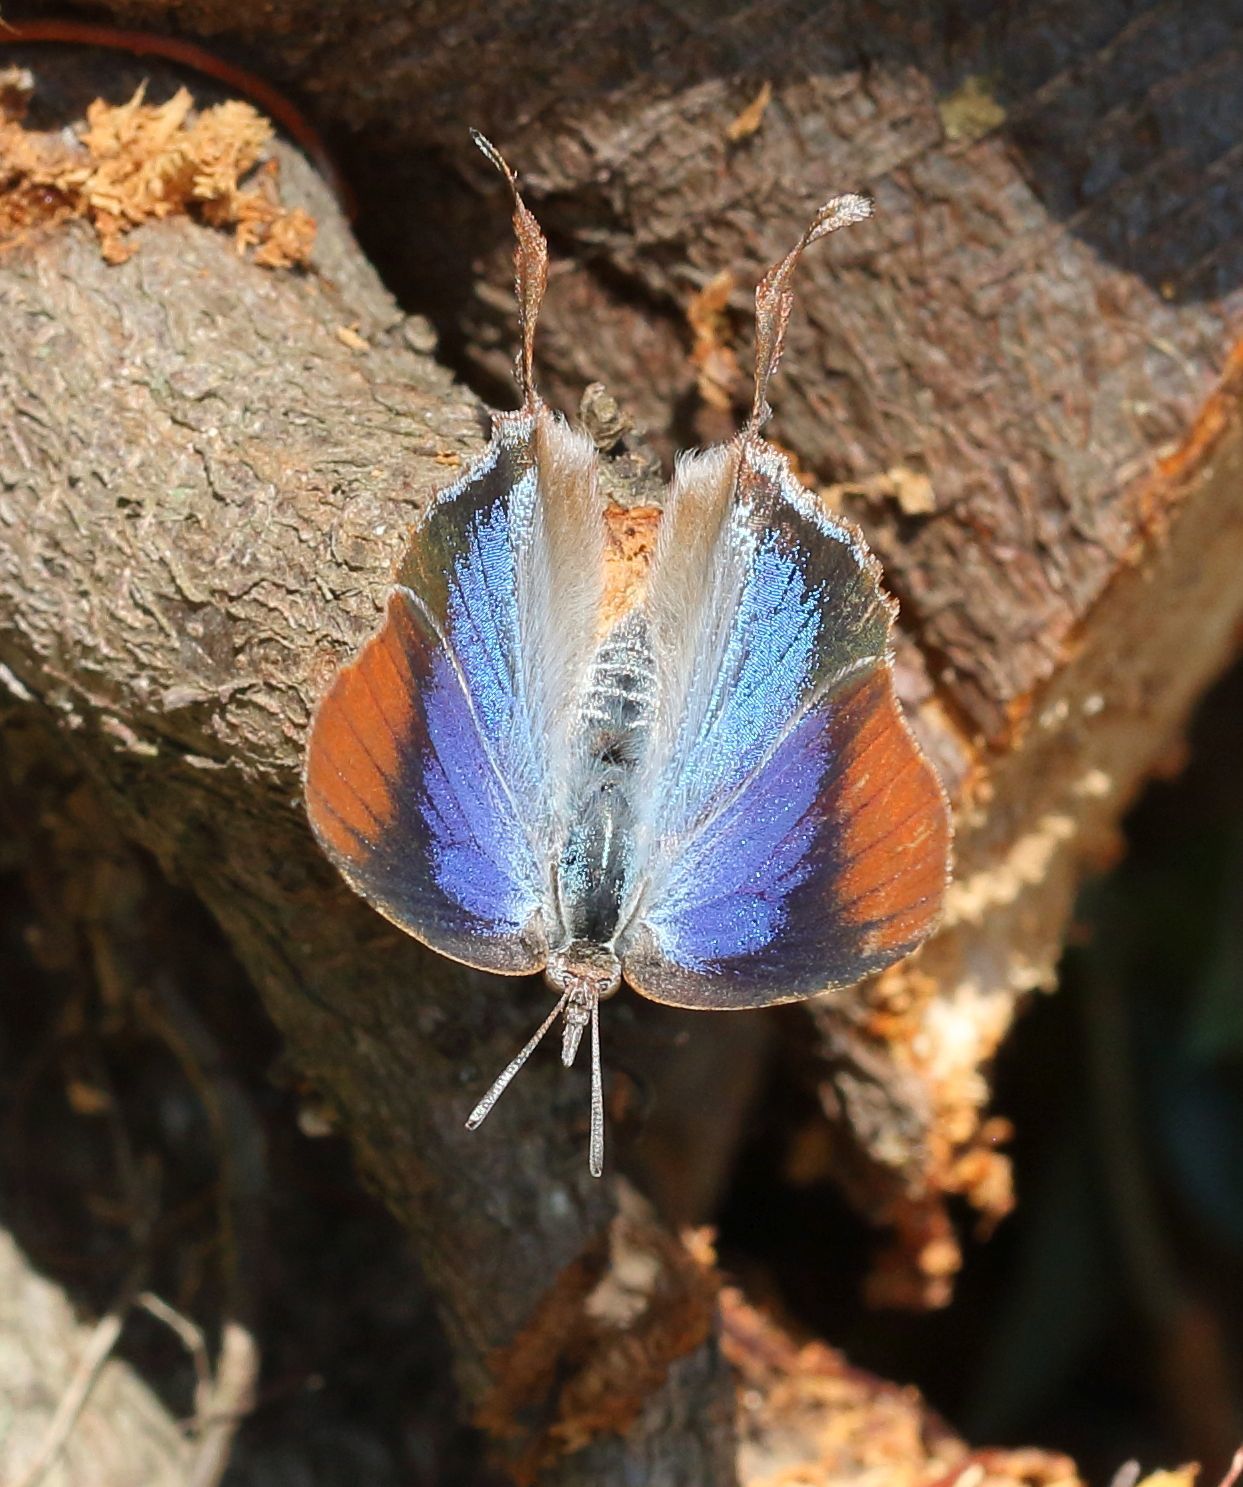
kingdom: Animalia
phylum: Arthropoda
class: Insecta
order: Lepidoptera
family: Lycaenidae
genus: Myrina
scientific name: Myrina silenus
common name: Amber fig-tree blue
